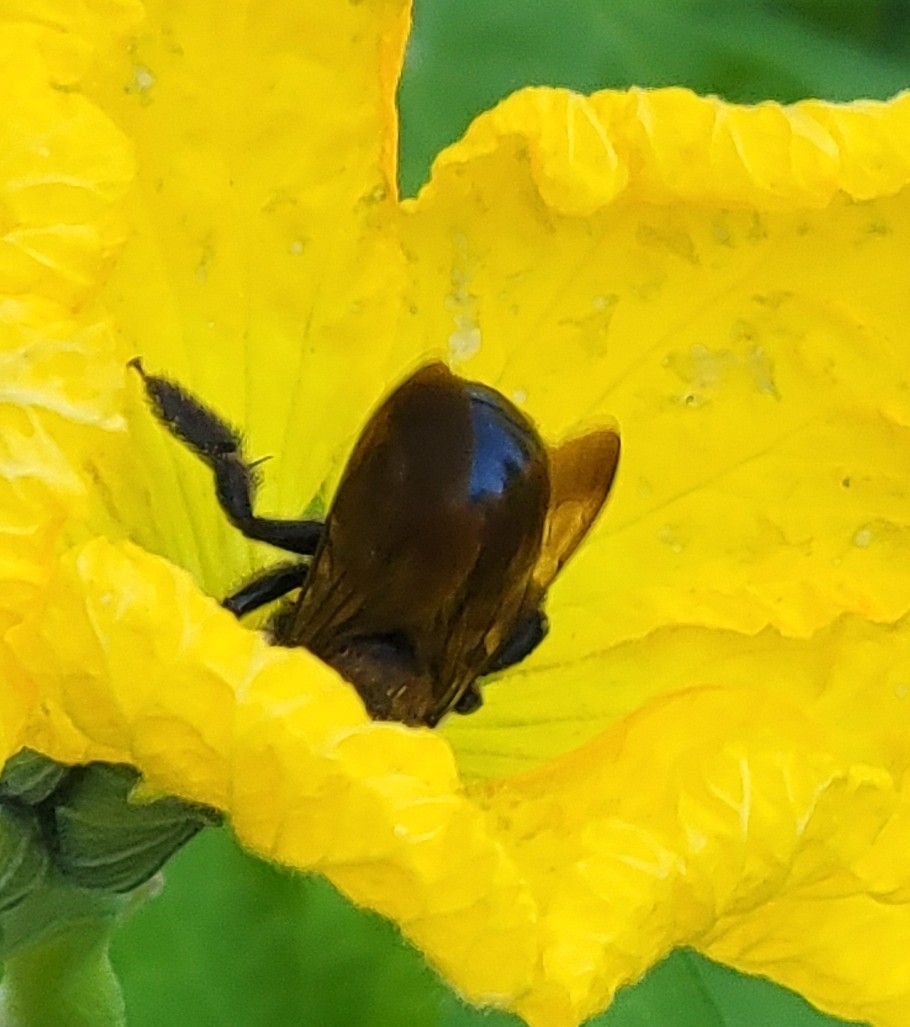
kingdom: Animalia
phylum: Arthropoda
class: Insecta
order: Hymenoptera
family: Apidae
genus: Xylocopa
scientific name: Xylocopa virginica
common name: Carpenter bee
